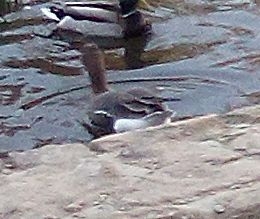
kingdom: Animalia
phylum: Chordata
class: Aves
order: Anseriformes
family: Anatidae
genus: Anser
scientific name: Anser albifrons
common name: Greater white-fronted goose
